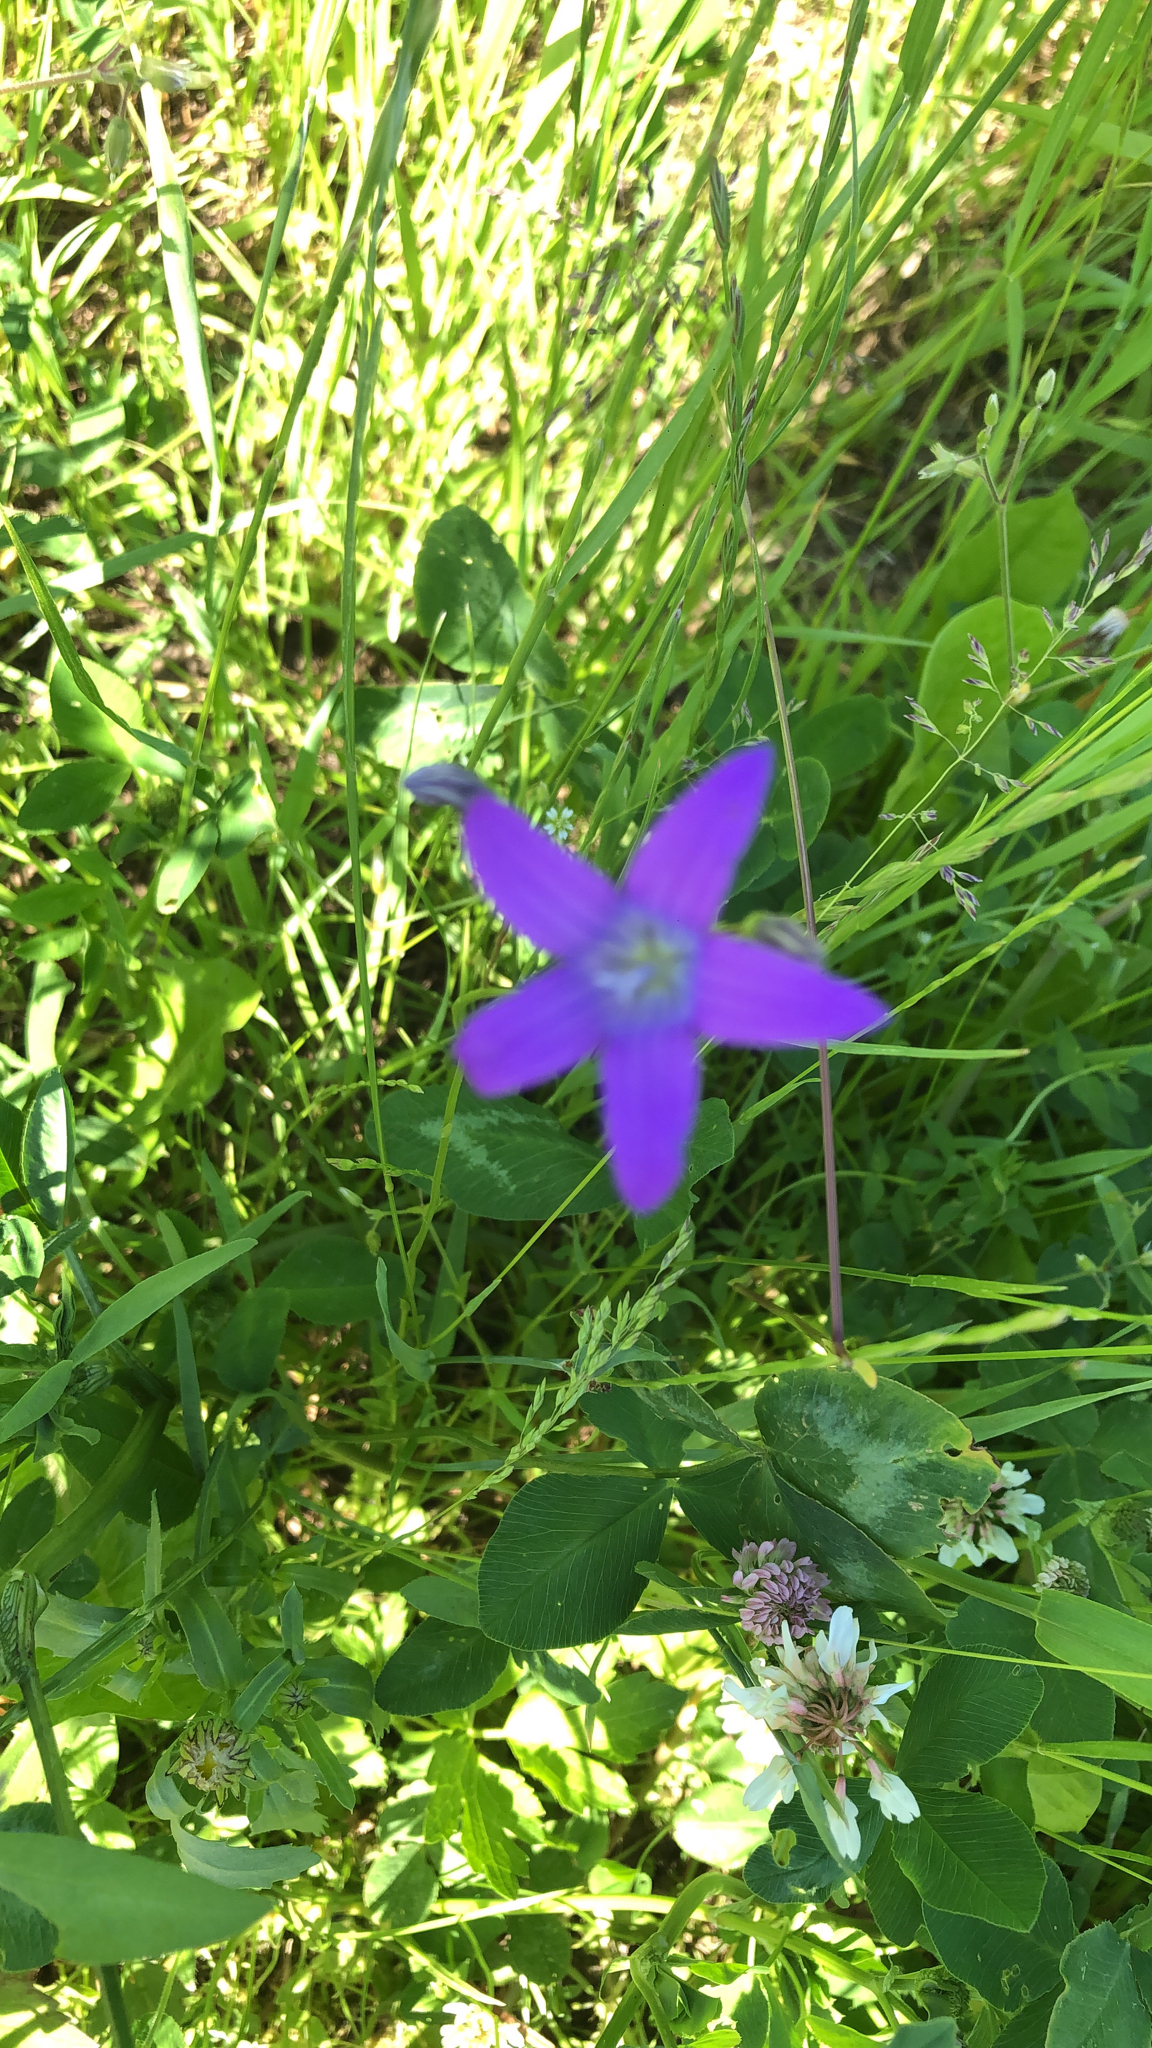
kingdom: Plantae
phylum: Tracheophyta
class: Magnoliopsida
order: Asterales
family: Campanulaceae
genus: Campanula
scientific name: Campanula patula
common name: Spreading bellflower
